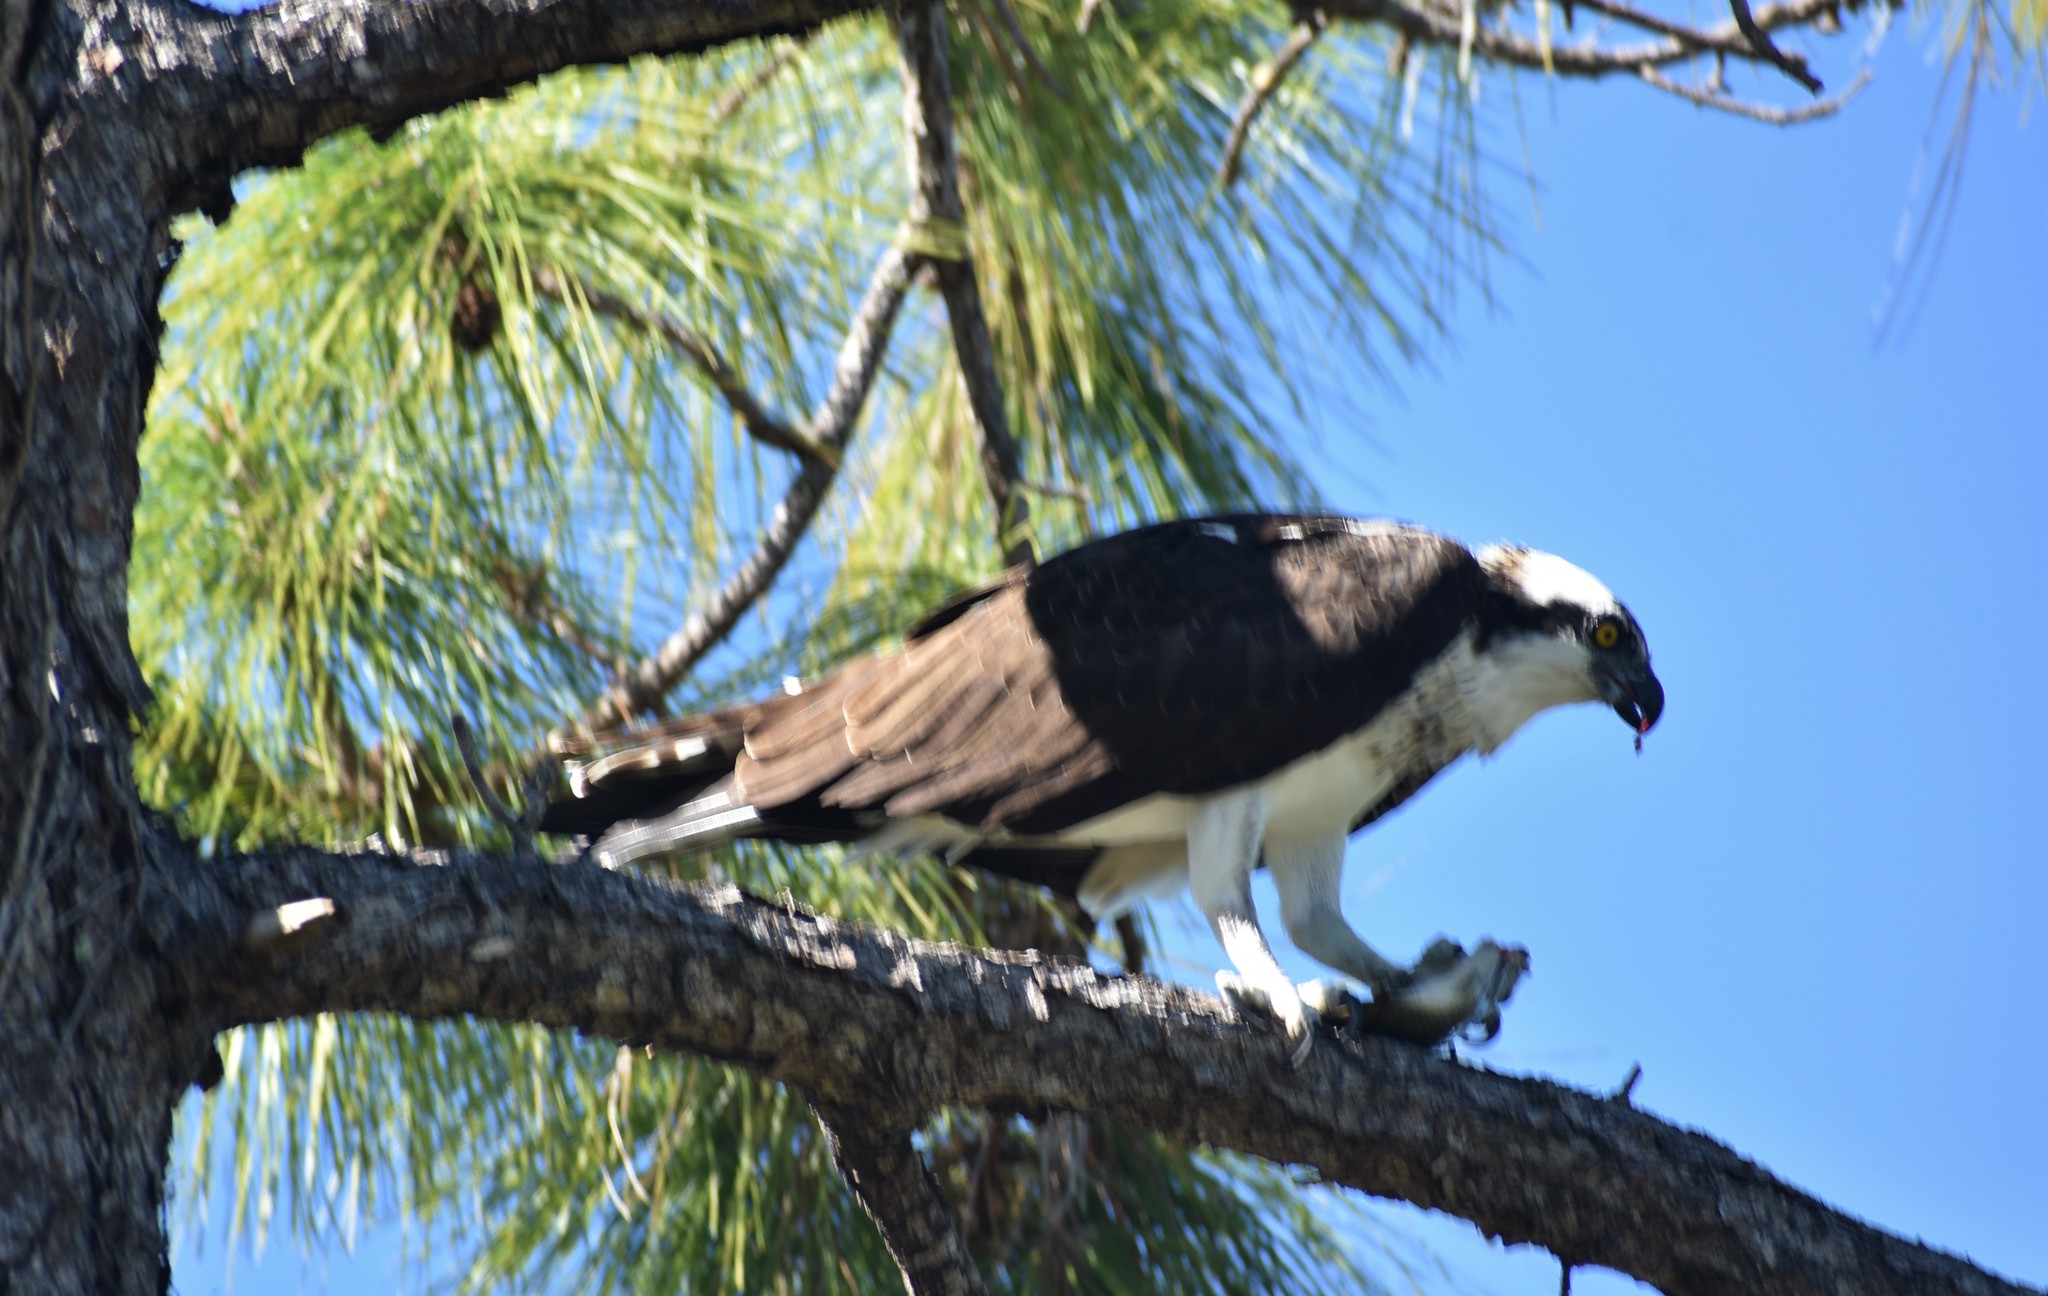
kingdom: Animalia
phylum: Chordata
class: Aves
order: Accipitriformes
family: Pandionidae
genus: Pandion
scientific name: Pandion haliaetus
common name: Osprey
